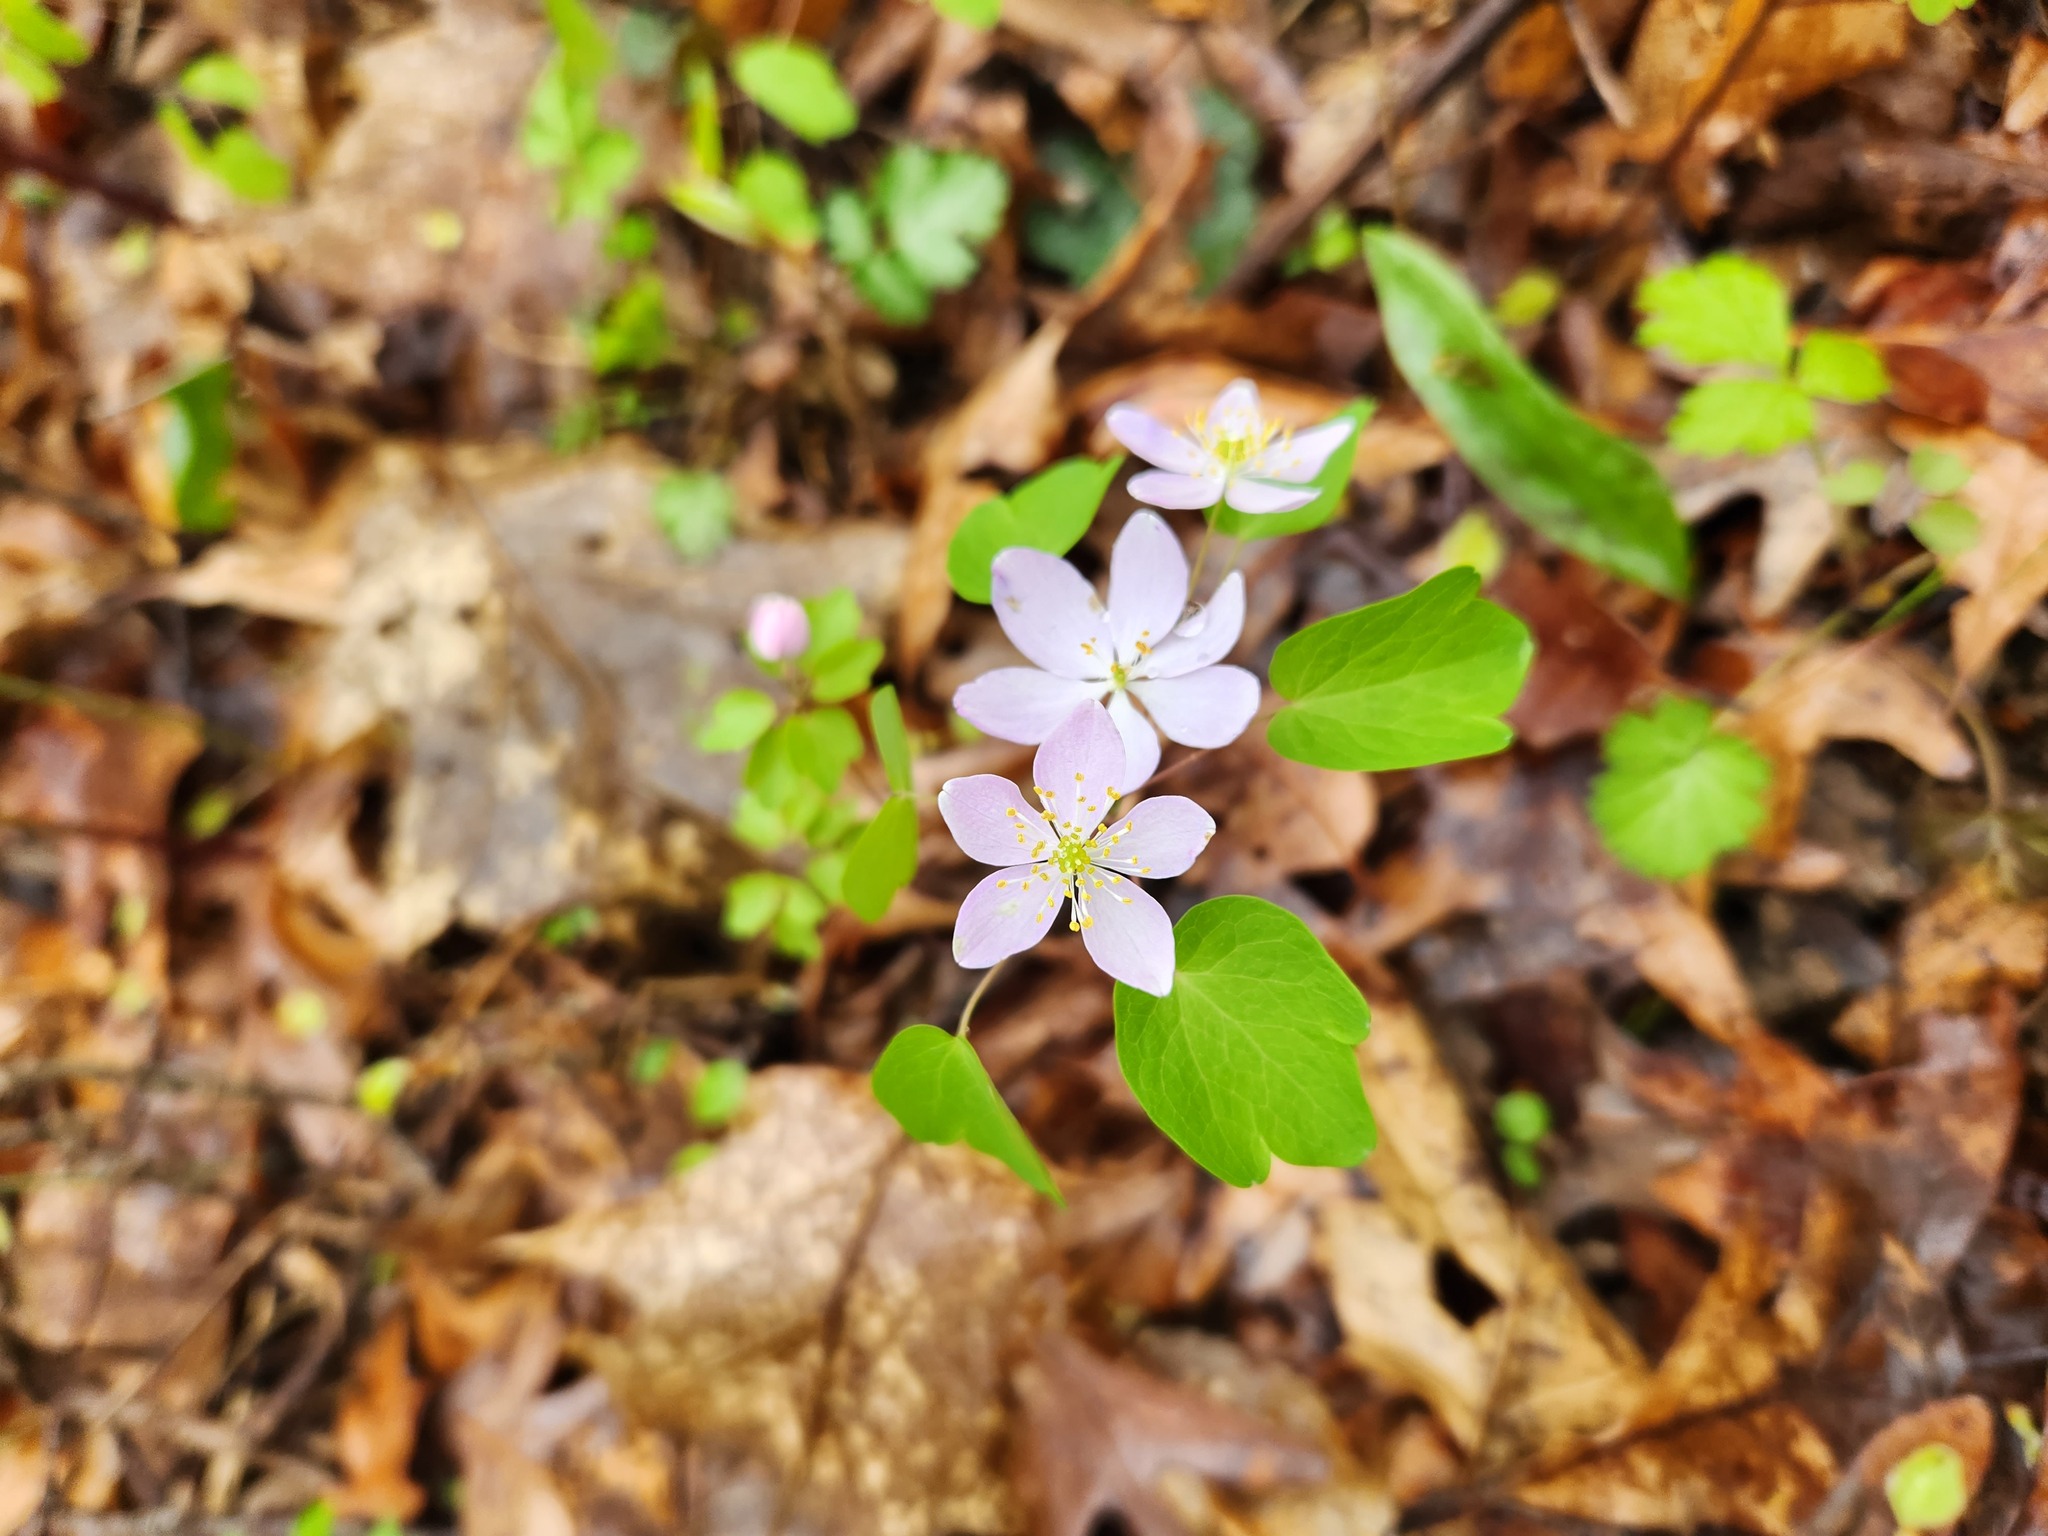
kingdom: Plantae
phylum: Tracheophyta
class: Magnoliopsida
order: Ranunculales
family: Ranunculaceae
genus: Thalictrum
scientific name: Thalictrum thalictroides
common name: Rue-anemone
